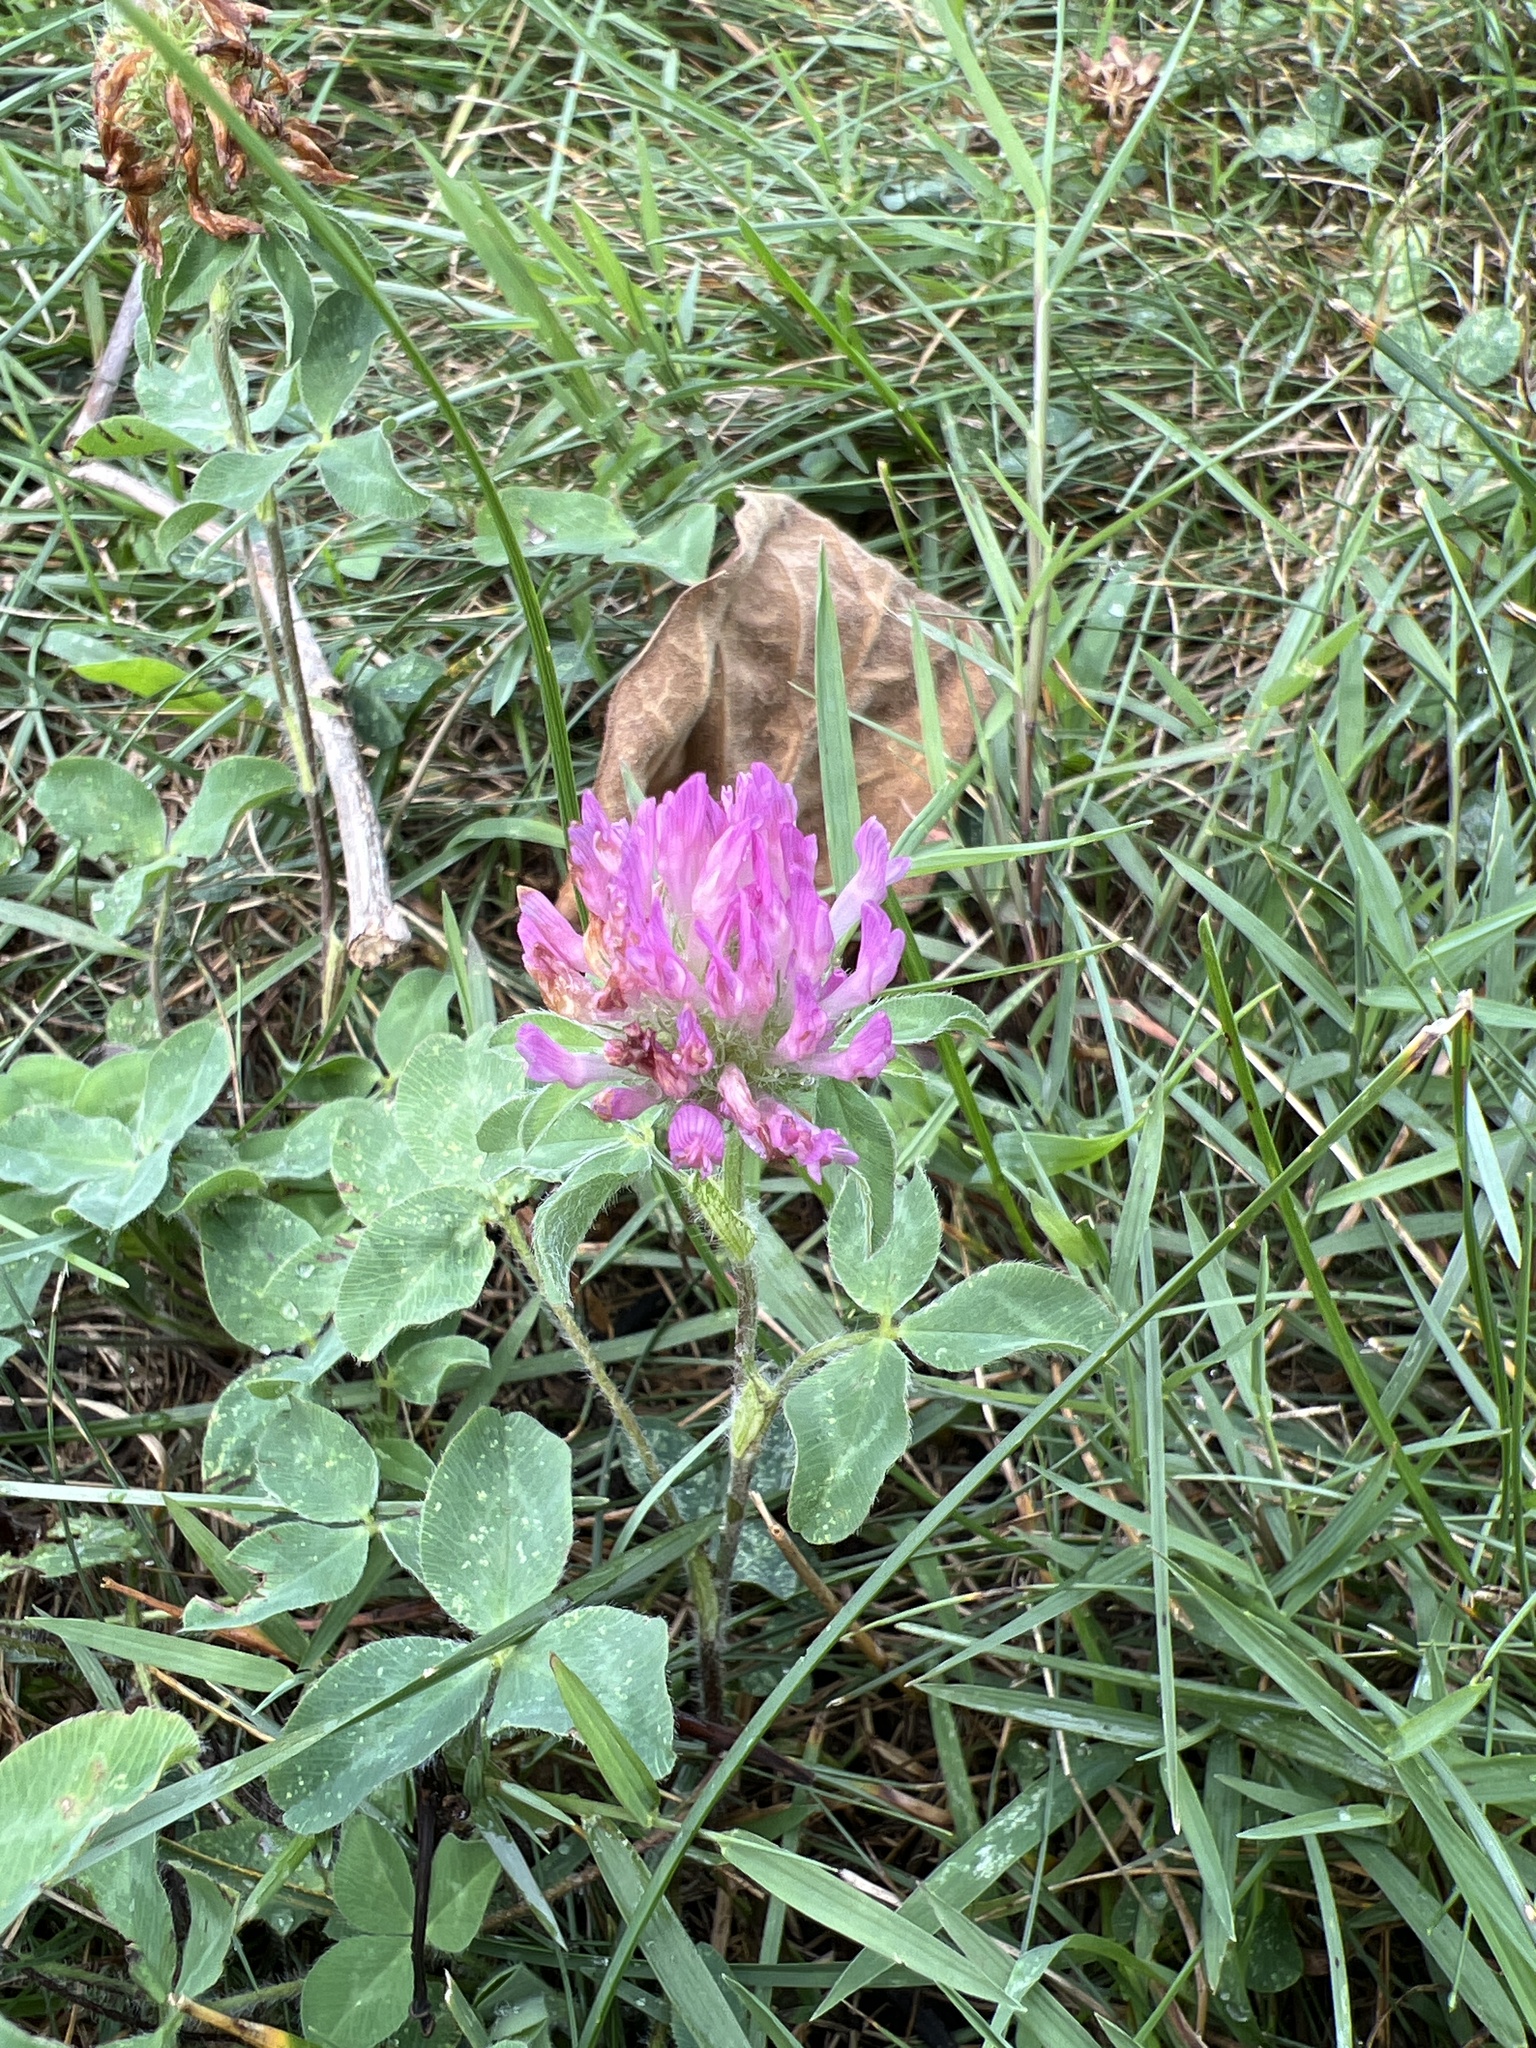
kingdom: Plantae
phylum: Tracheophyta
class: Magnoliopsida
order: Fabales
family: Fabaceae
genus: Trifolium
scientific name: Trifolium pratense
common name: Red clover
